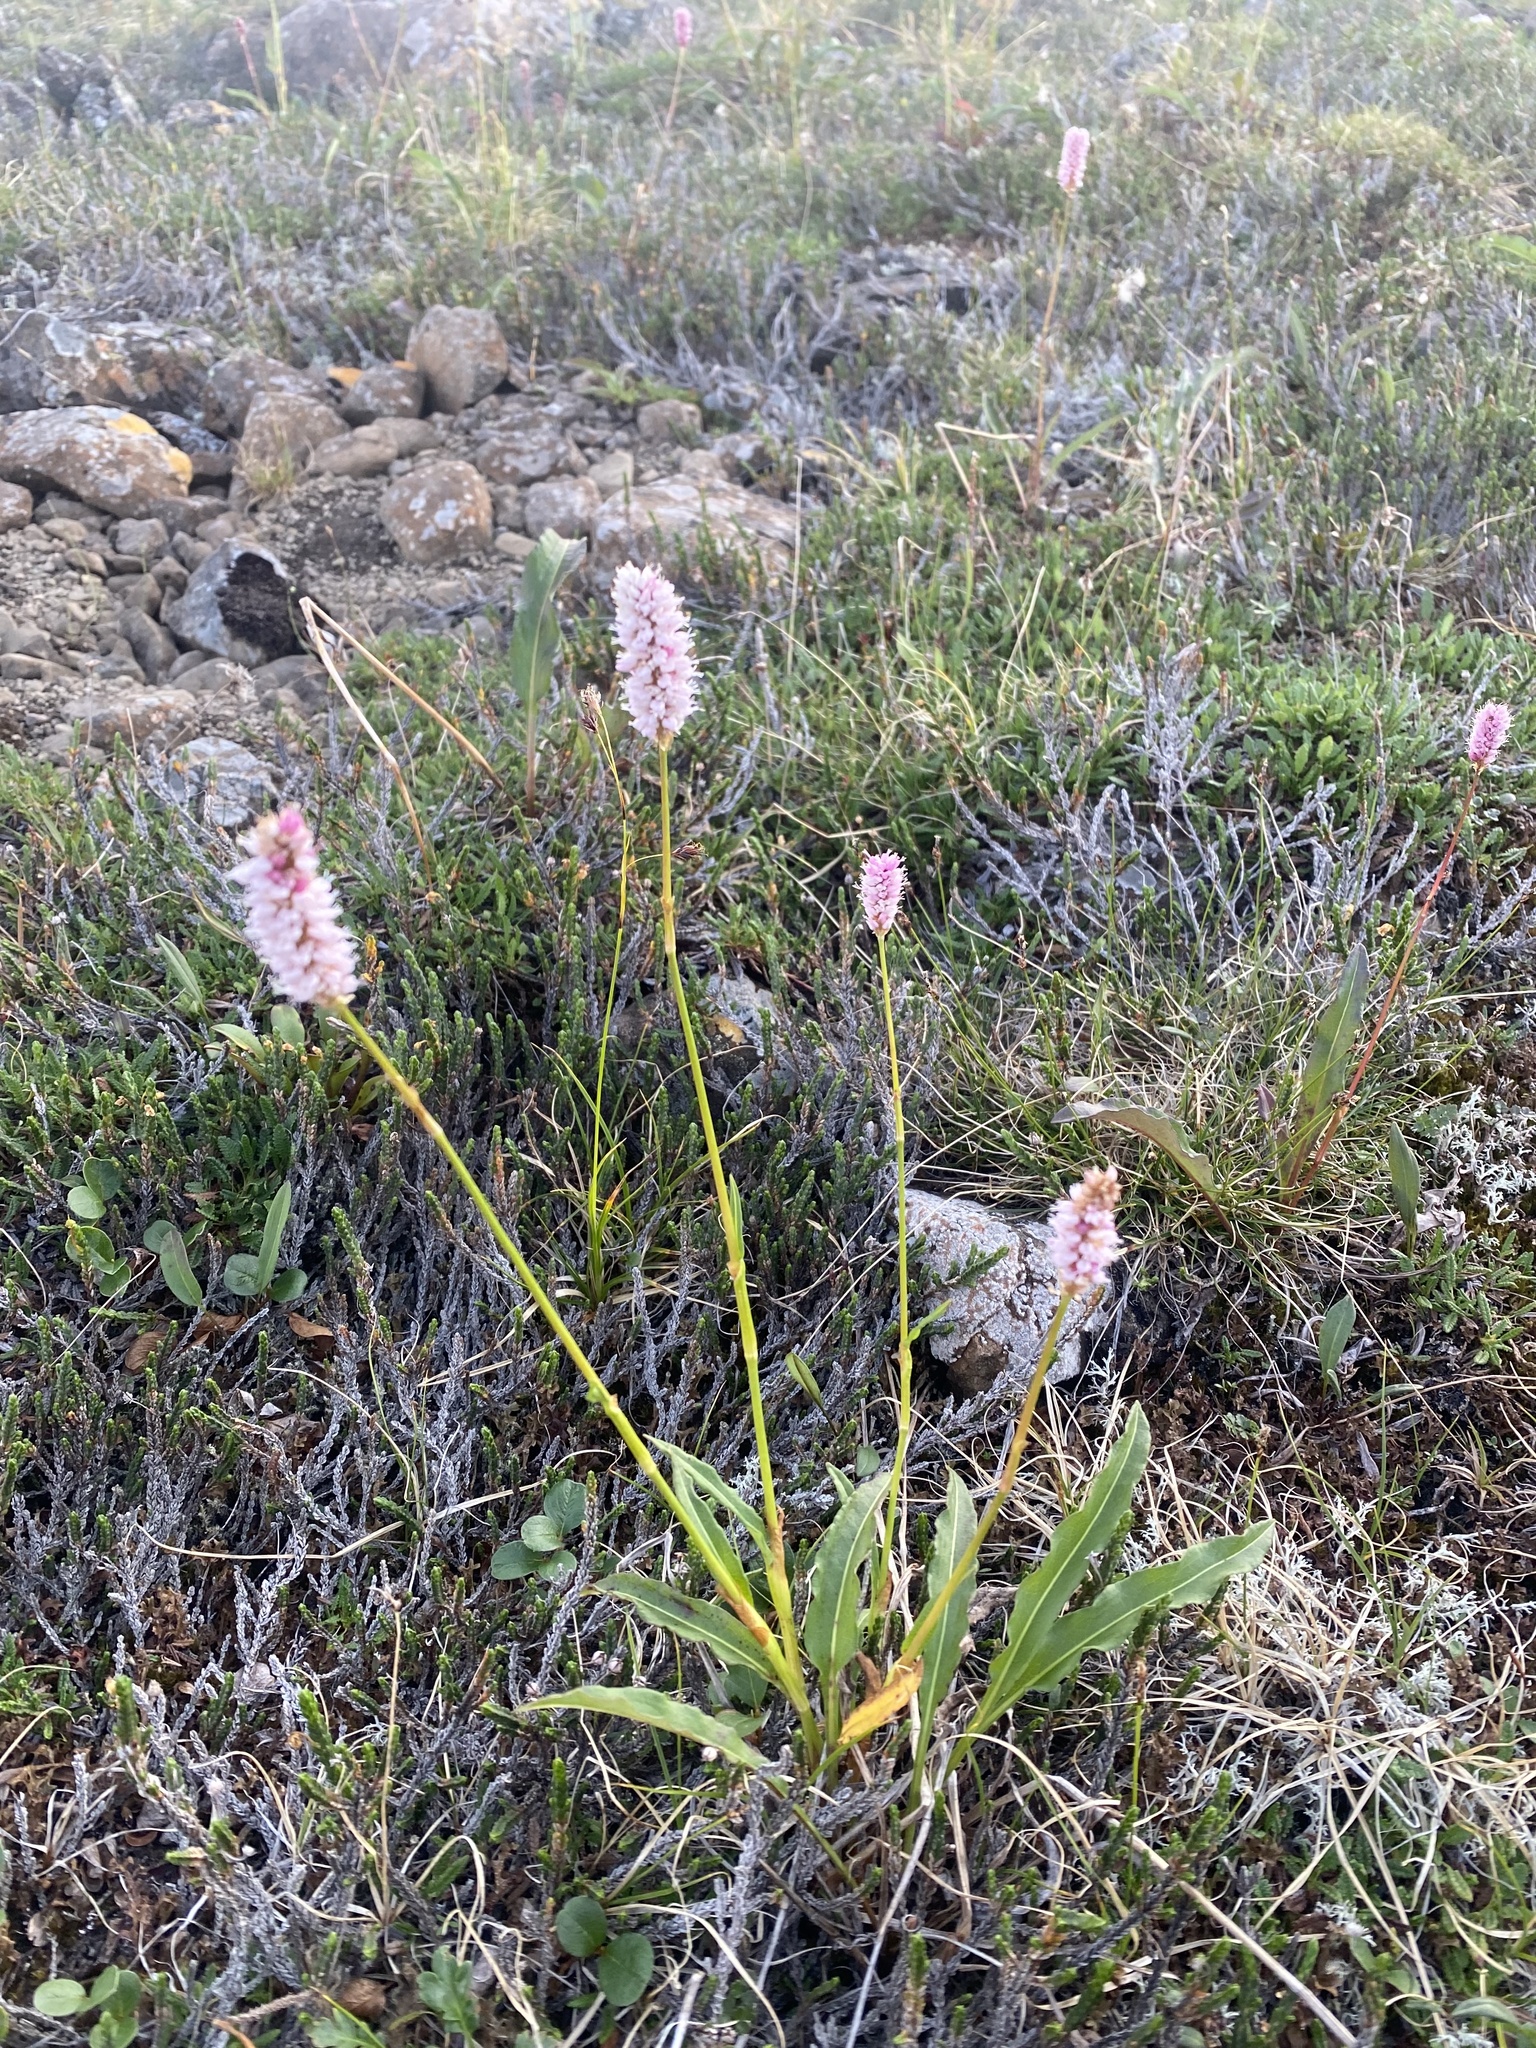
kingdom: Plantae
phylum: Tracheophyta
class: Magnoliopsida
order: Caryophyllales
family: Polygonaceae
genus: Bistorta
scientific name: Bistorta officinalis
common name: Common bistort
